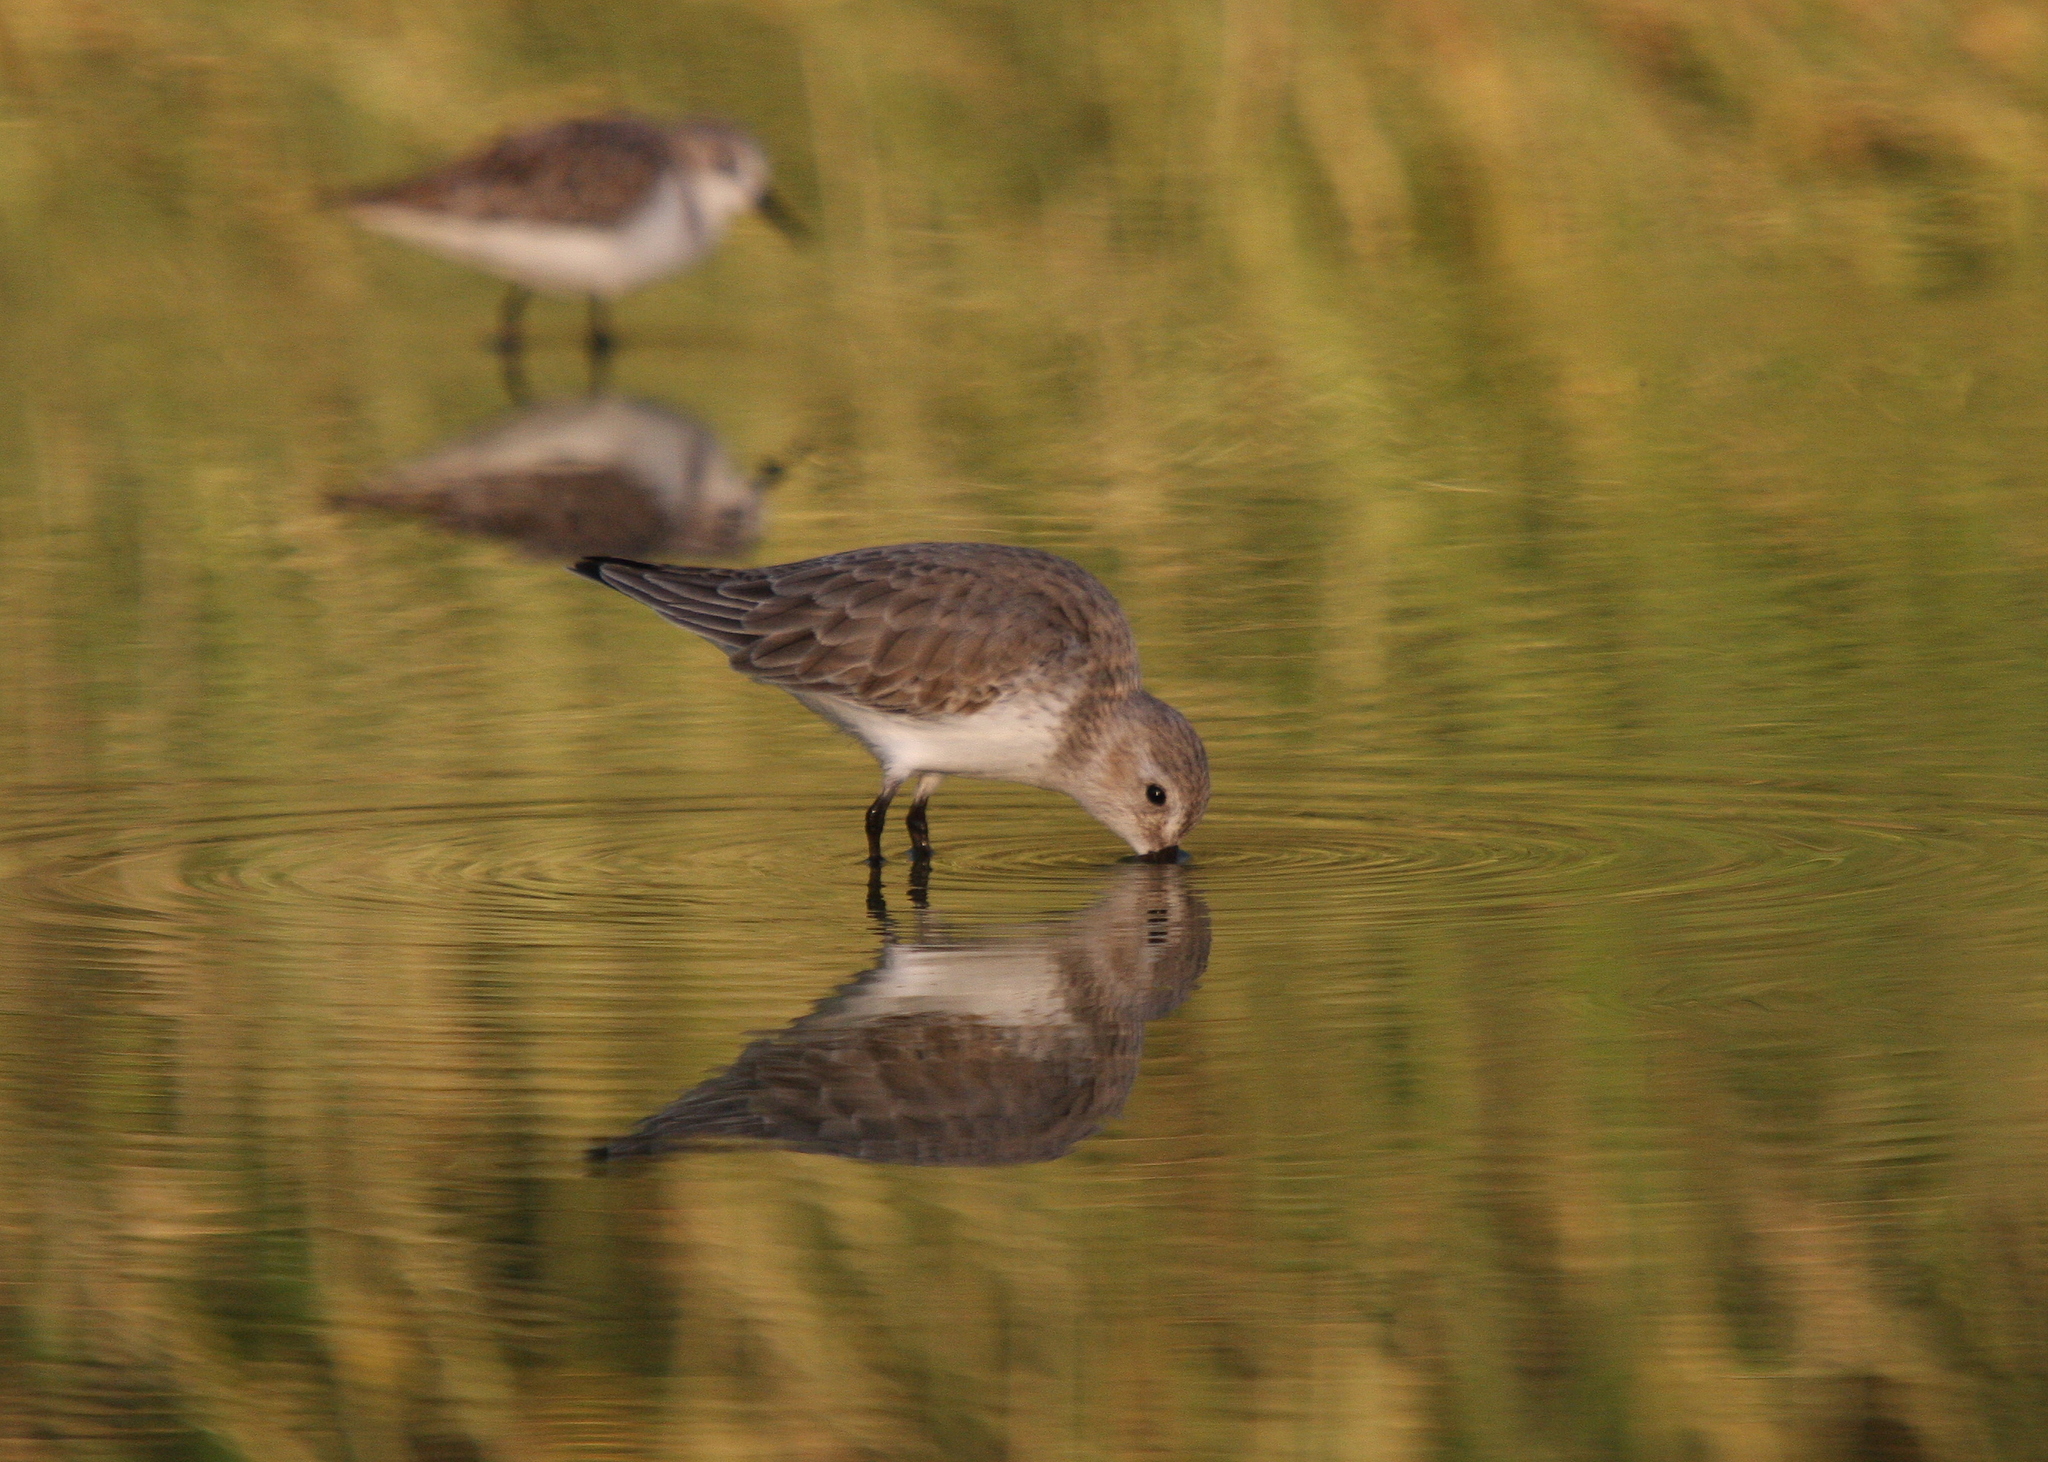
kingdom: Animalia
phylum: Chordata
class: Aves
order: Charadriiformes
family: Scolopacidae
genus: Calidris
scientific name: Calidris alpina
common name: Dunlin
